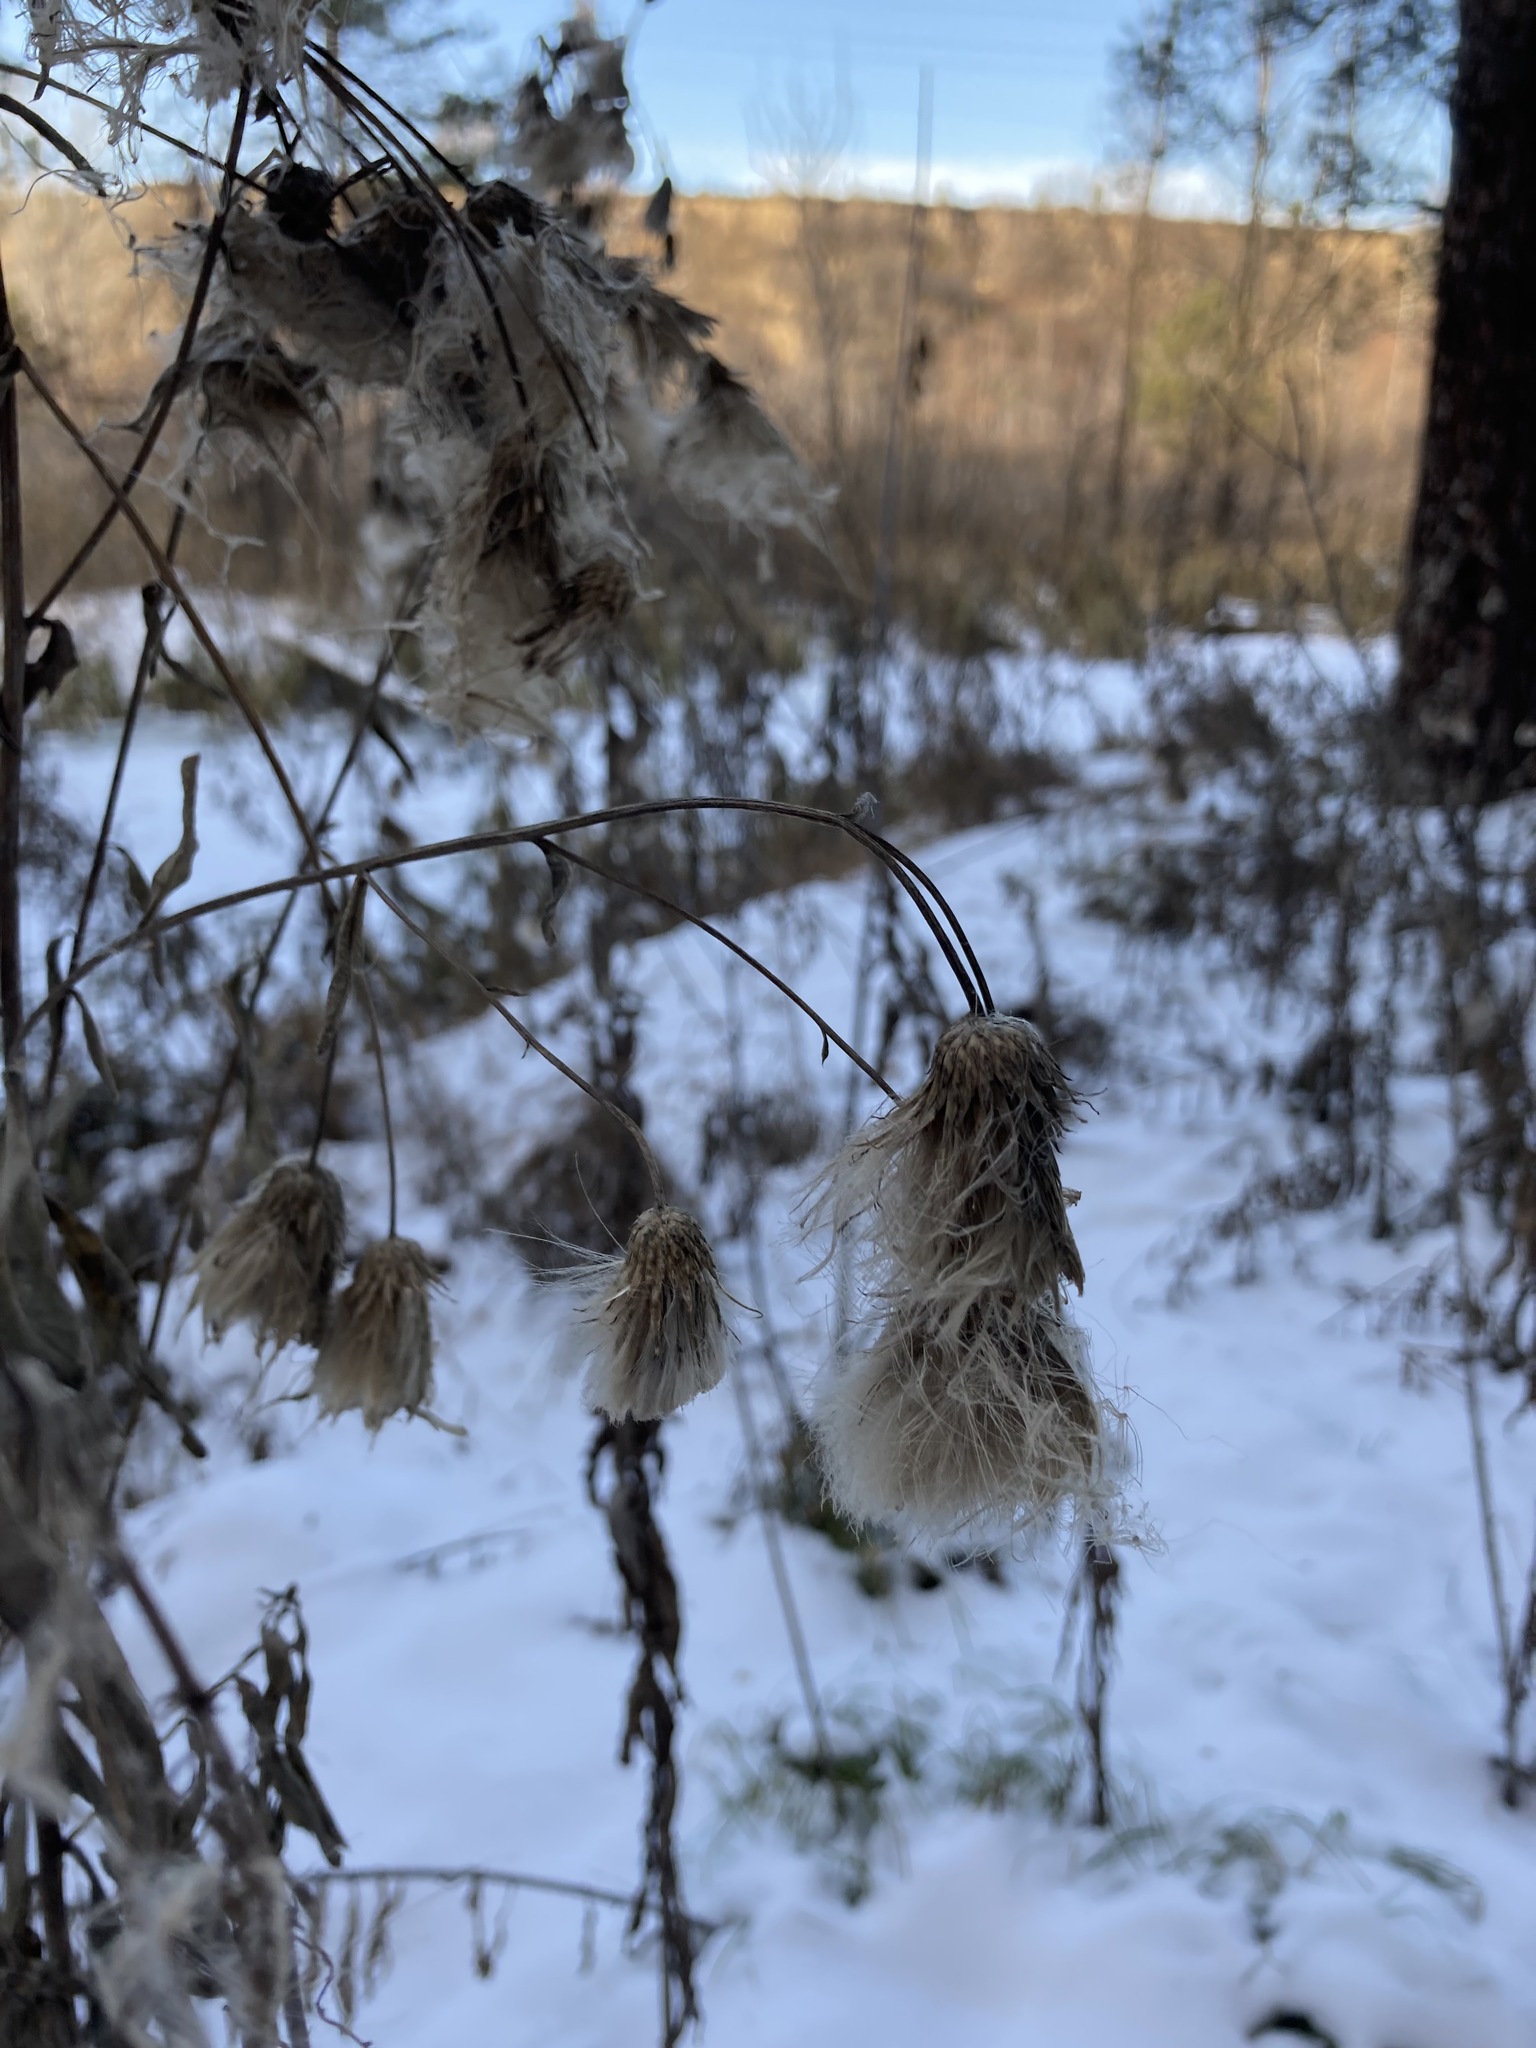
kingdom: Plantae
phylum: Tracheophyta
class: Magnoliopsida
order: Asterales
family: Asteraceae
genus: Cirsium
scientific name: Cirsium arvense
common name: Creeping thistle
